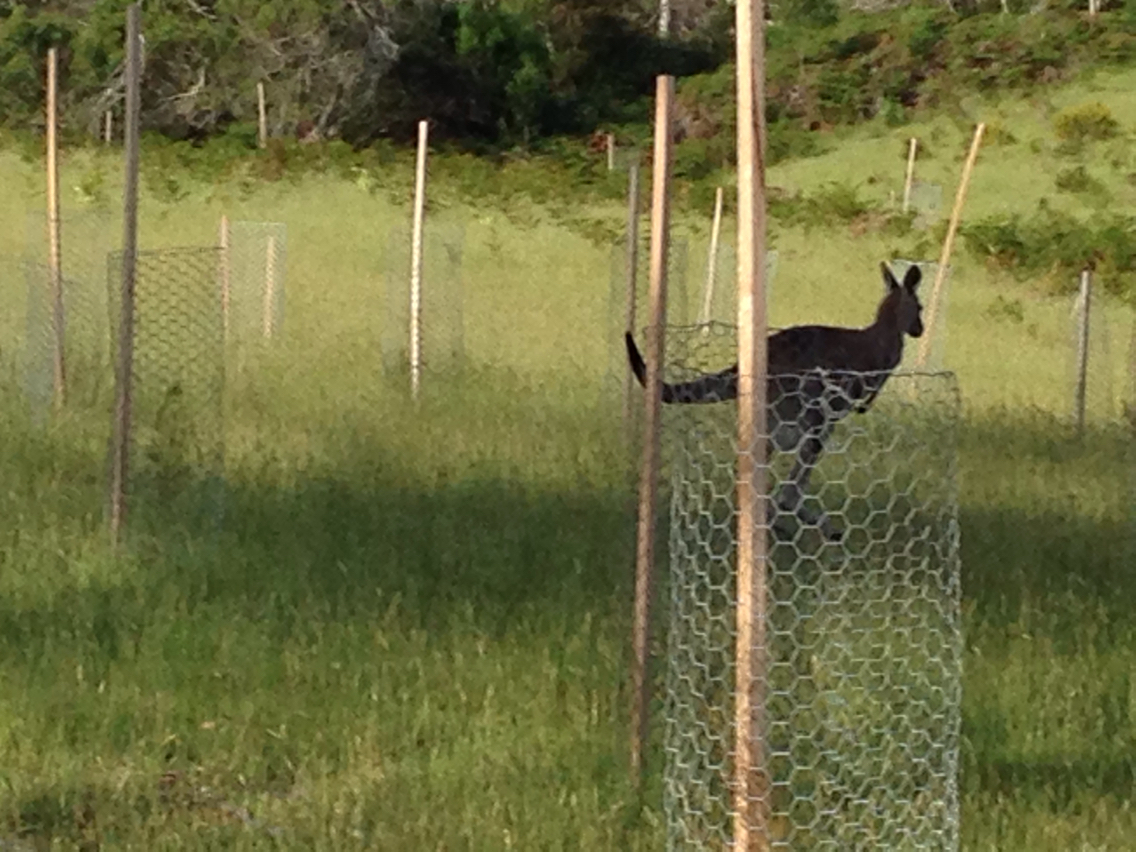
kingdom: Animalia
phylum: Chordata
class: Mammalia
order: Diprotodontia
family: Macropodidae
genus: Macropus
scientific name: Macropus giganteus
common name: Eastern grey kangaroo
